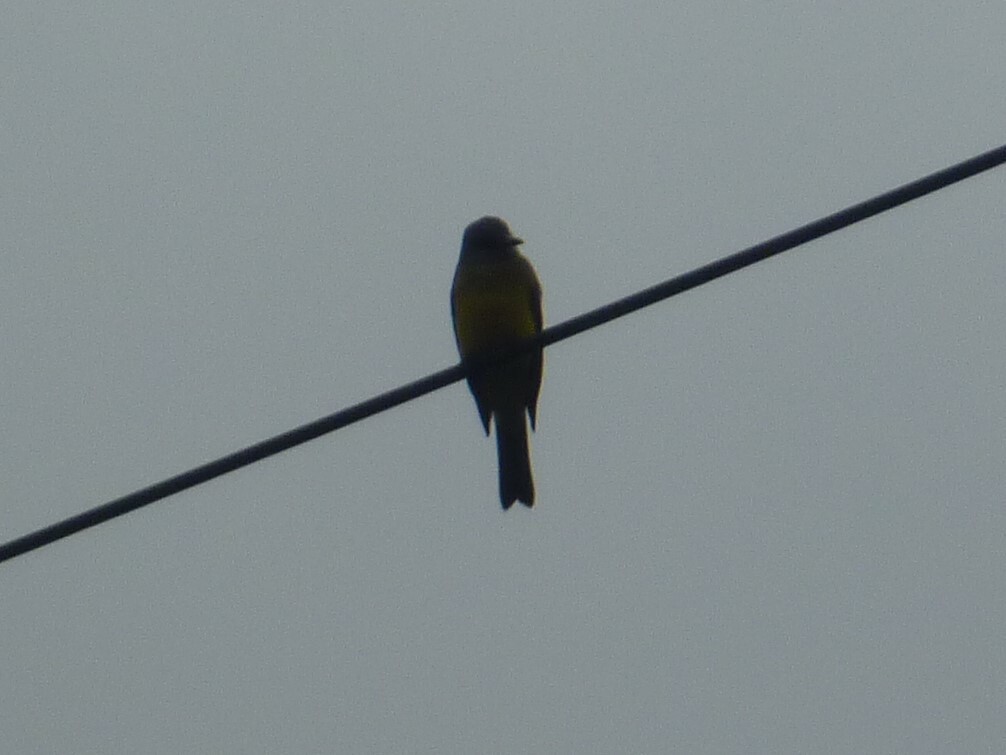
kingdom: Animalia
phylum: Chordata
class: Aves
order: Passeriformes
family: Tyrannidae
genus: Tyrannus
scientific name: Tyrannus melancholicus
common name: Tropical kingbird
